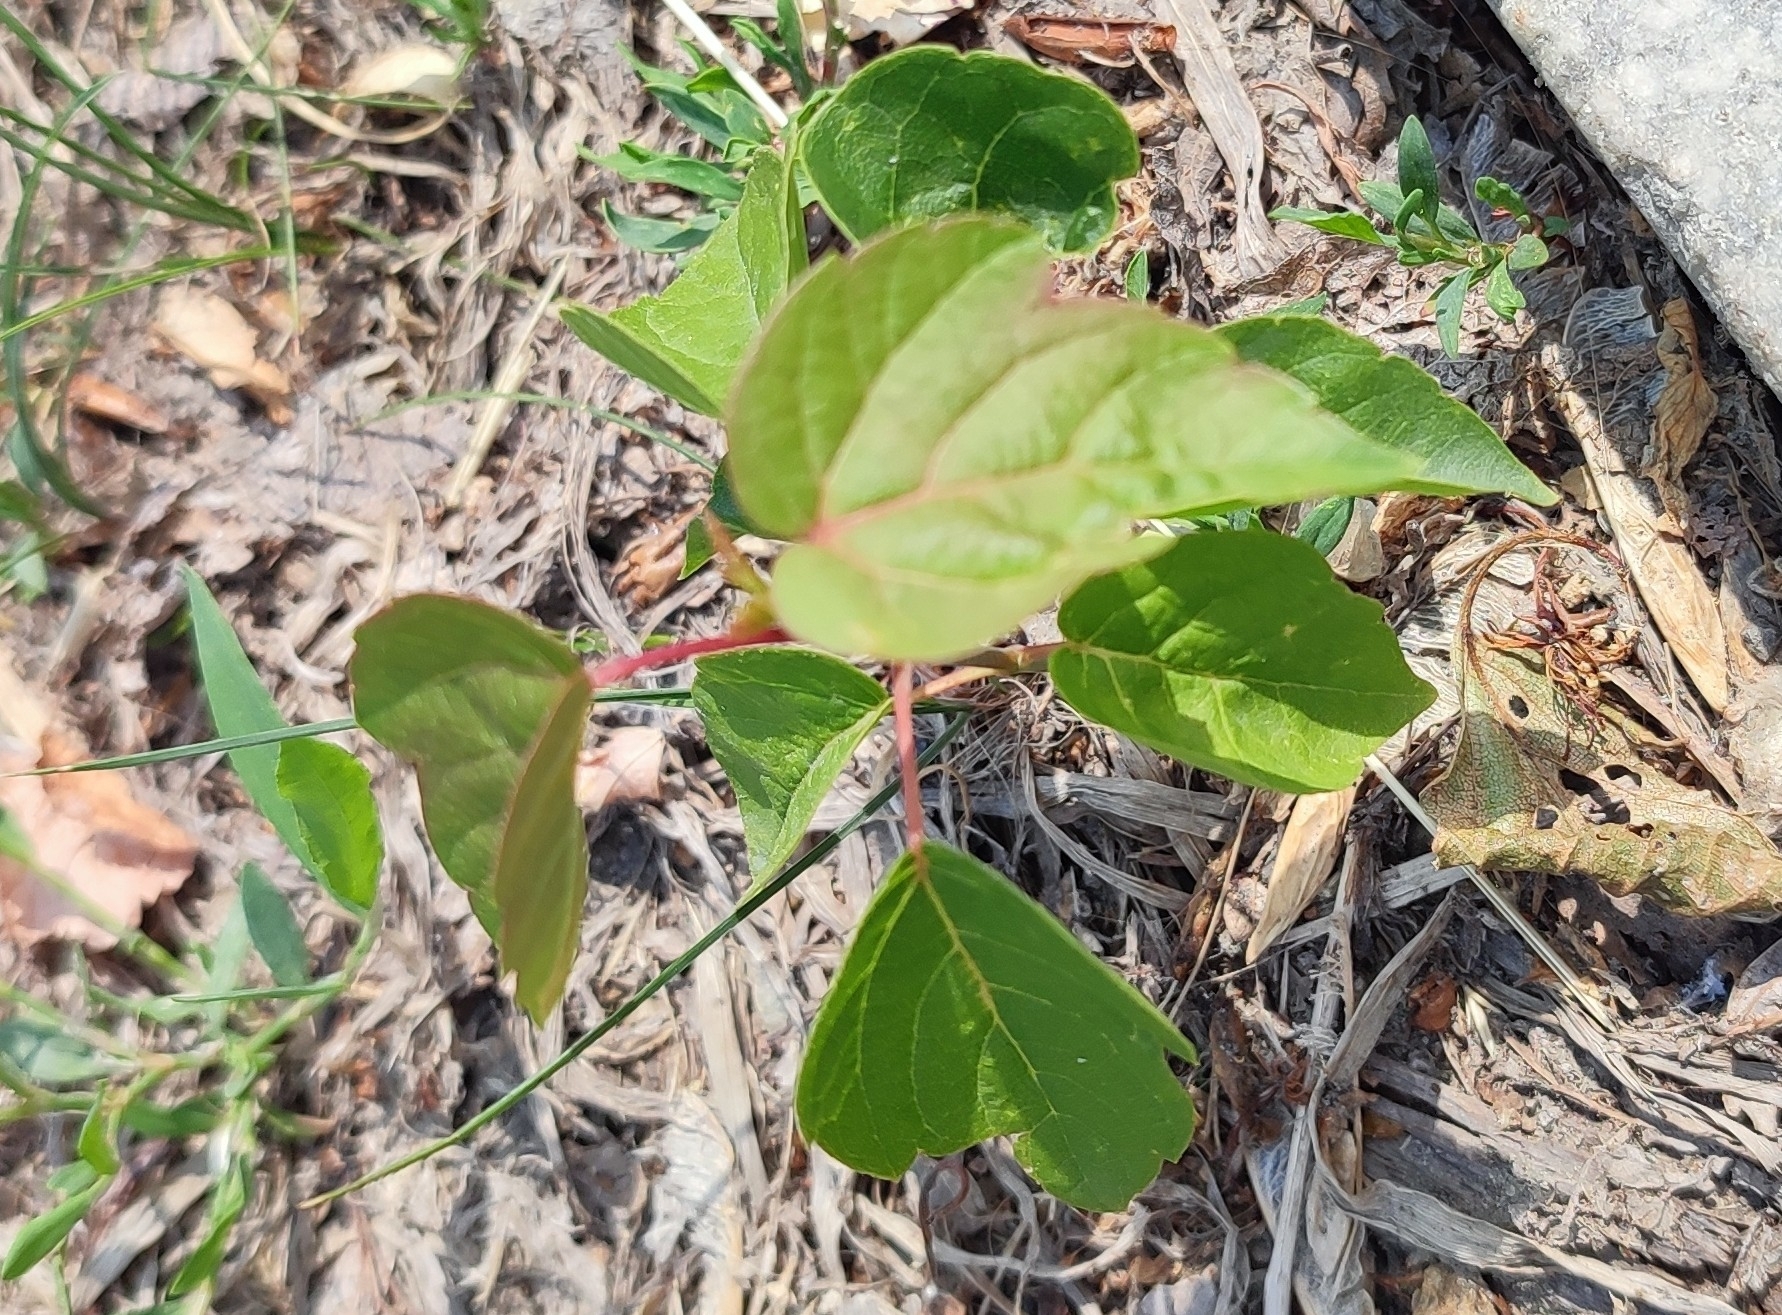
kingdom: Plantae
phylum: Tracheophyta
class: Magnoliopsida
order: Sapindales
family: Sapindaceae
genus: Acer
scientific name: Acer negundo
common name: Ashleaf maple
